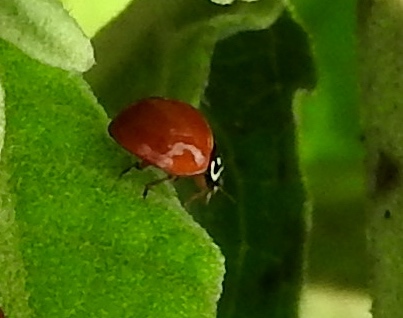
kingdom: Animalia
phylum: Arthropoda
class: Insecta
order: Coleoptera
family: Coccinellidae
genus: Cycloneda
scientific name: Cycloneda sanguinea
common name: Ladybird beetle
